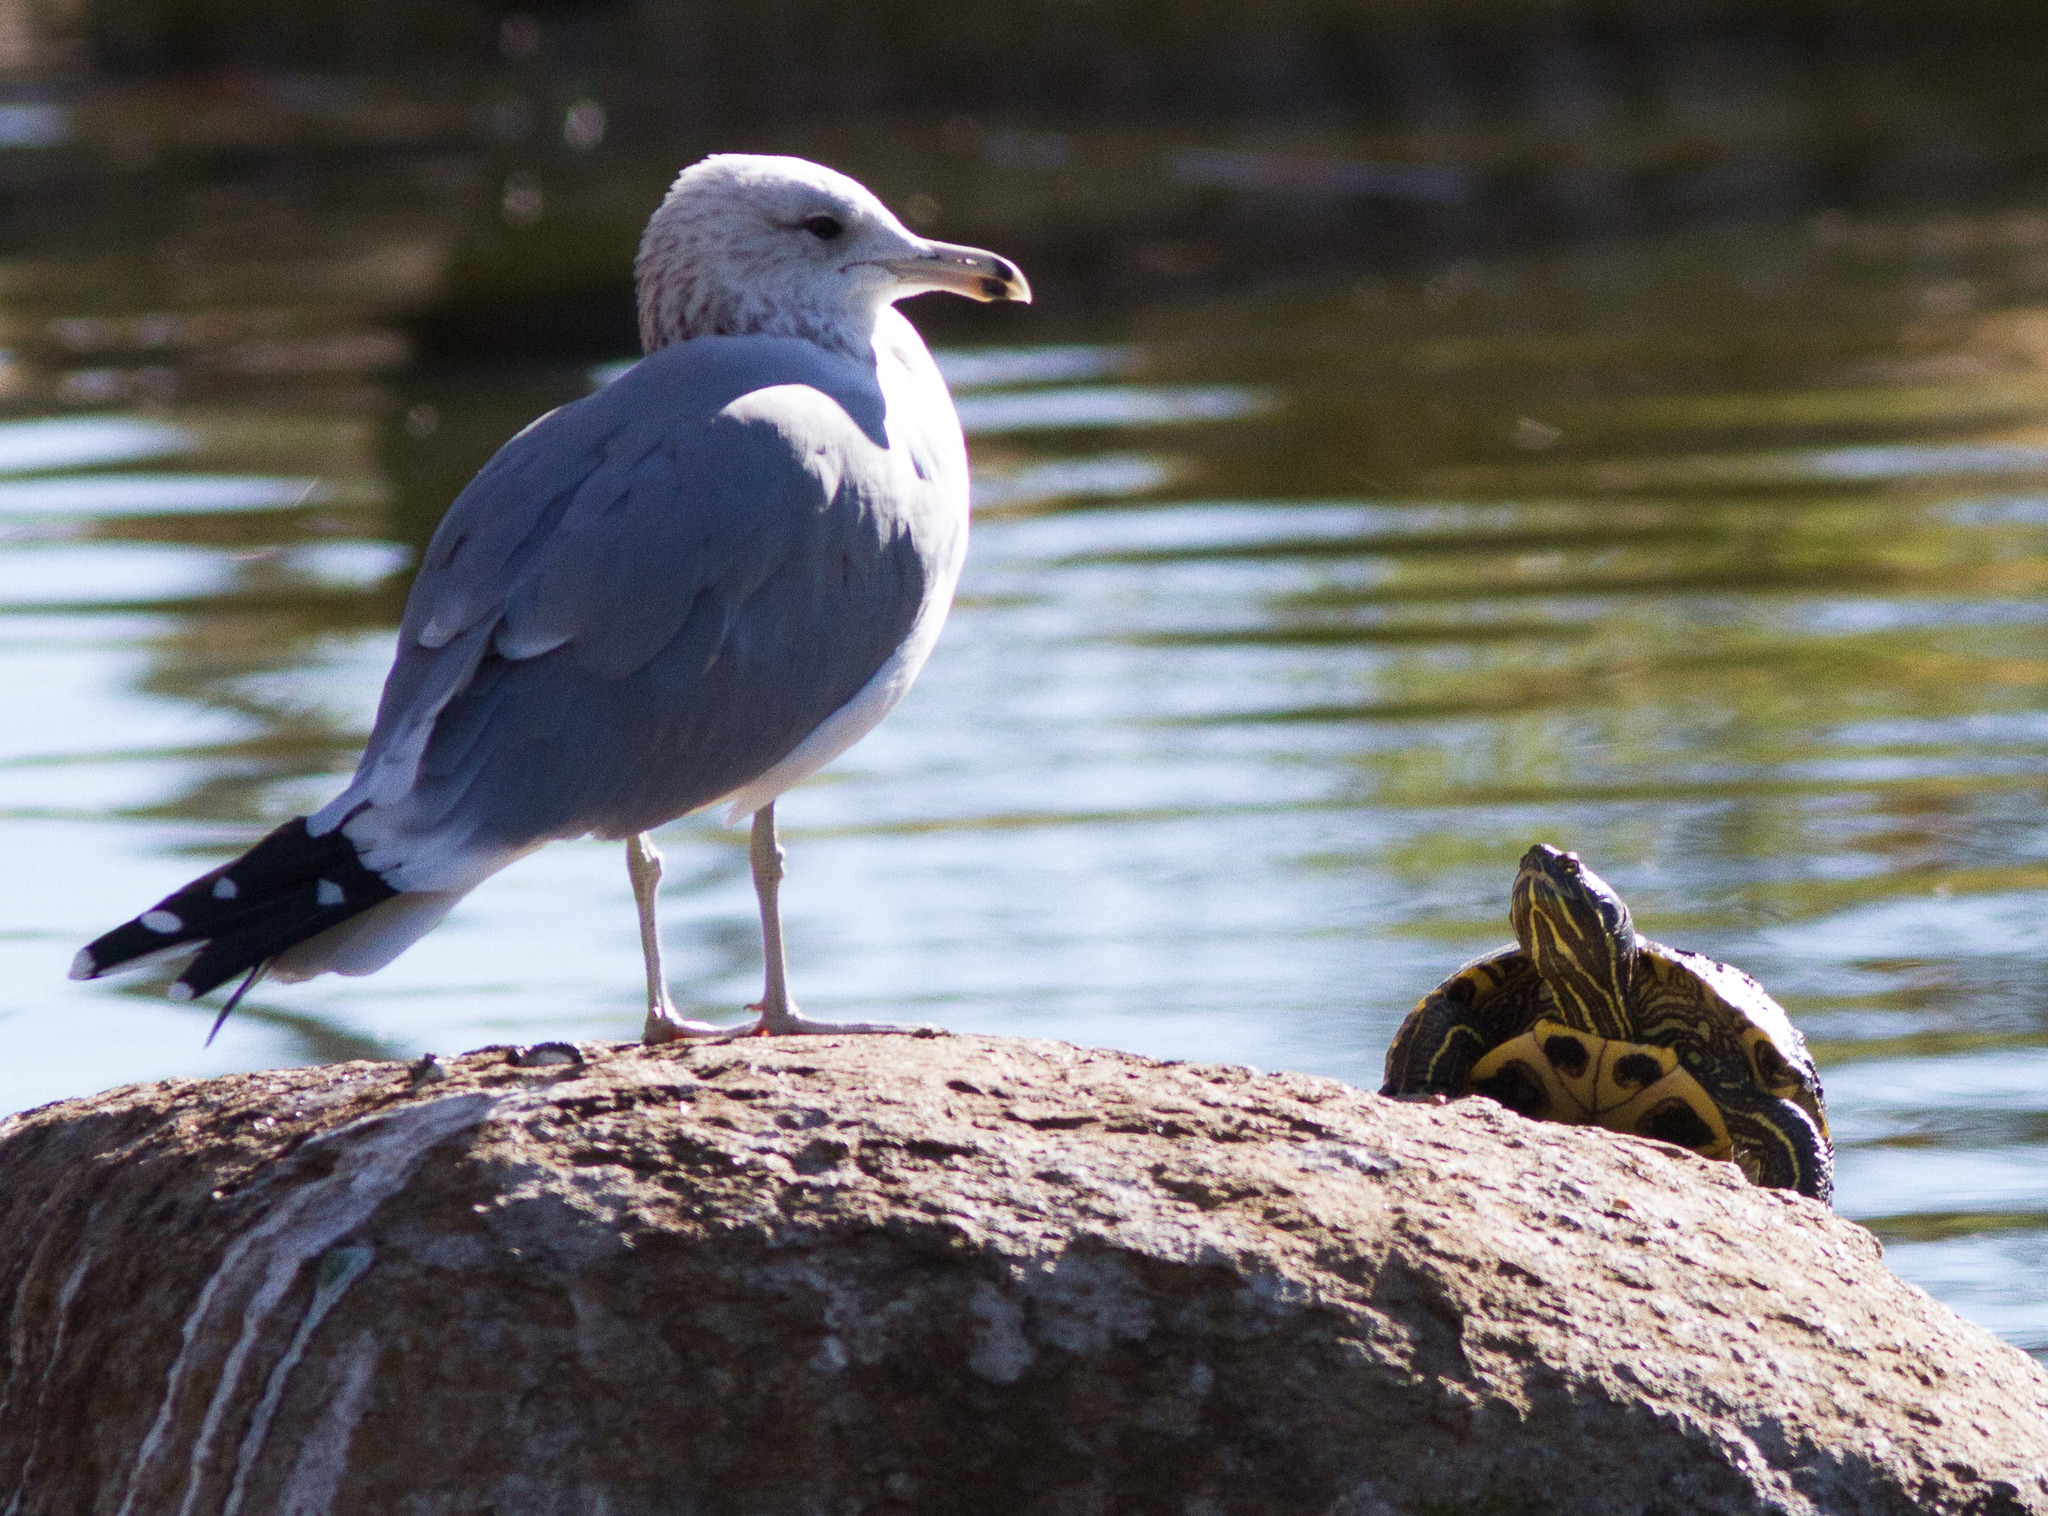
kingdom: Animalia
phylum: Chordata
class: Aves
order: Charadriiformes
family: Laridae
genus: Larus
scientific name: Larus californicus
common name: California gull
